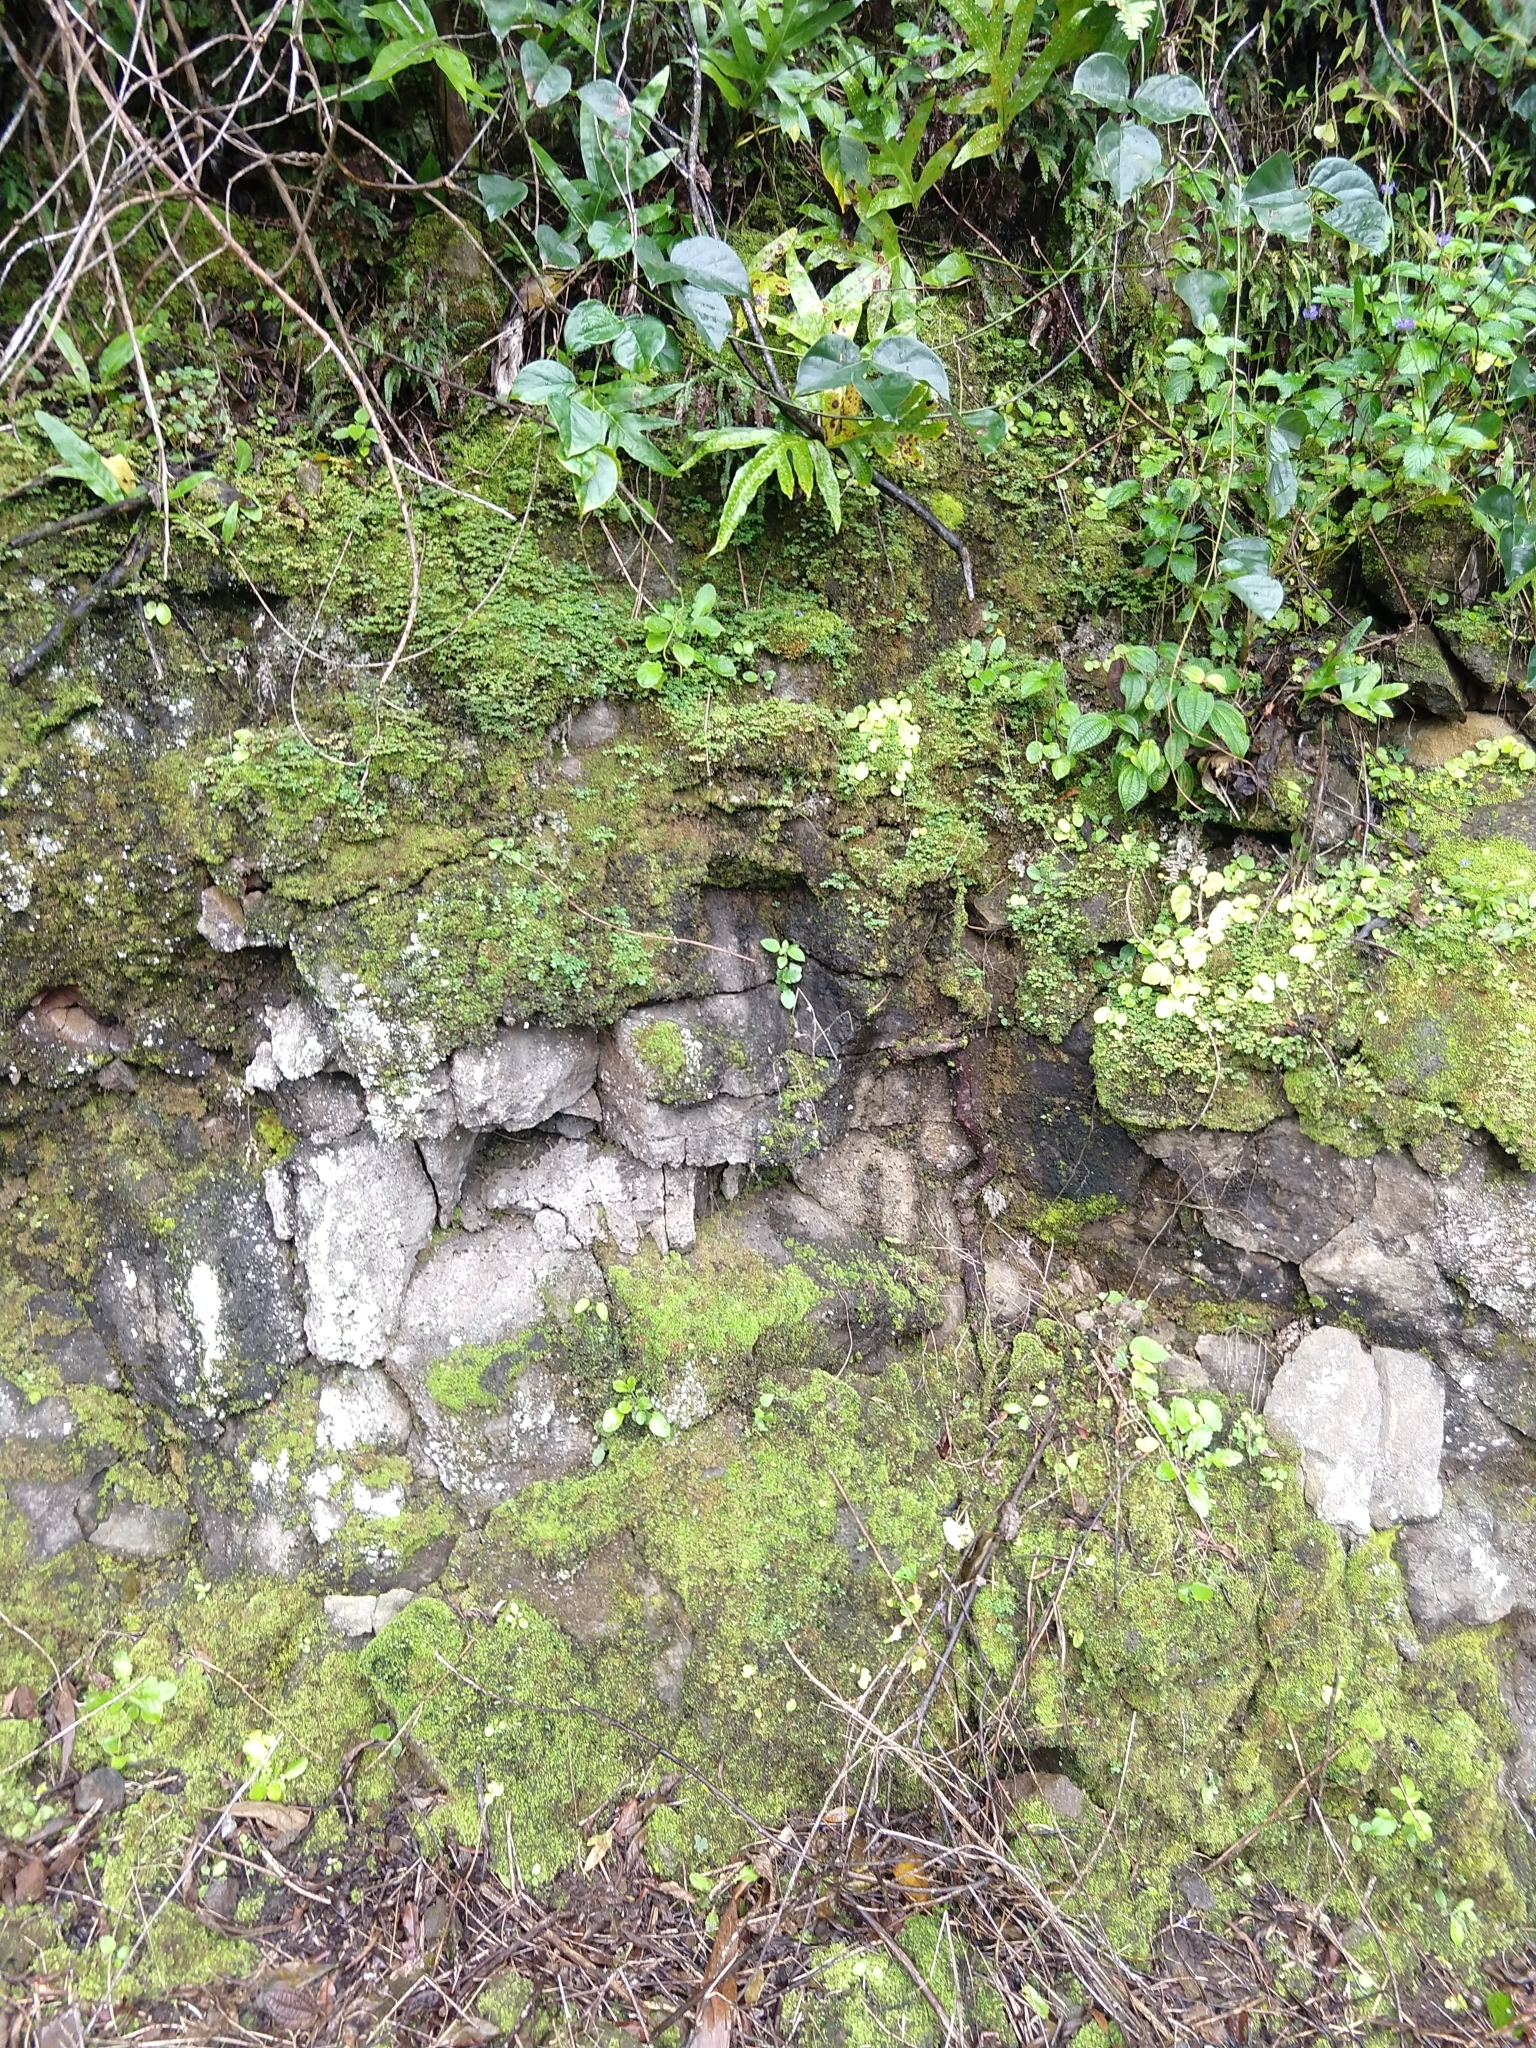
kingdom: Animalia
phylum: Arthropoda
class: Arachnida
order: Araneae
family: Araneidae
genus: Argiope
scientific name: Argiope appensa
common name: Garden spider
